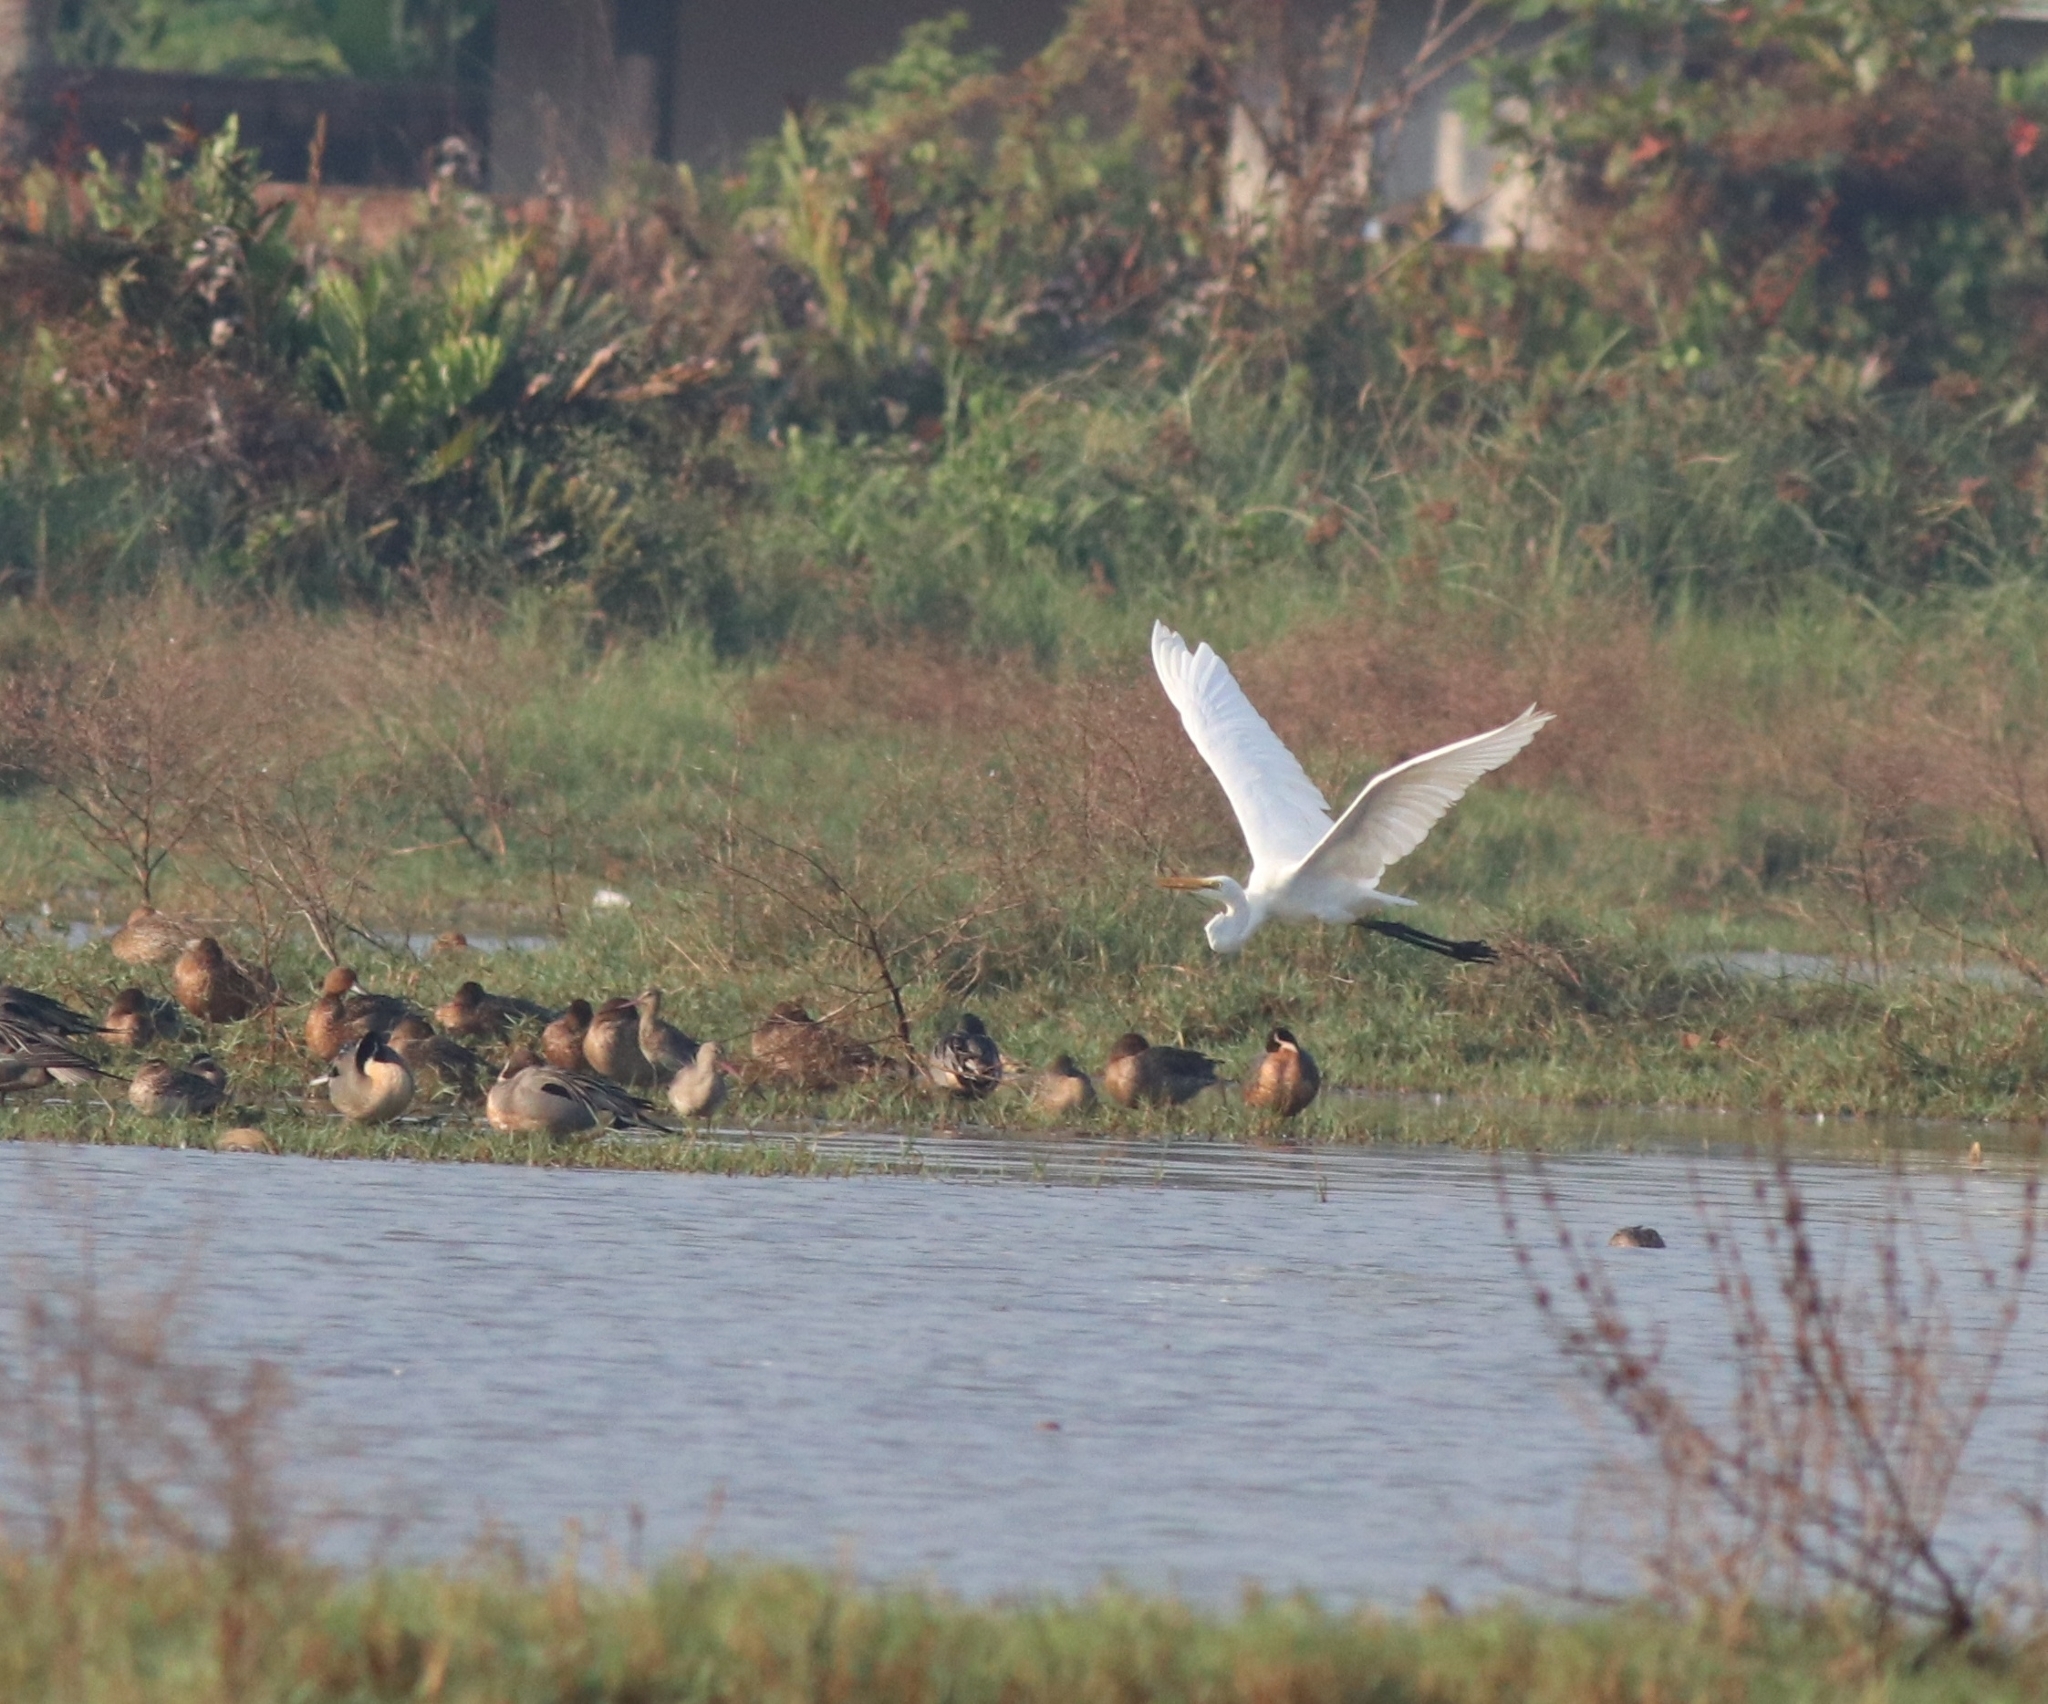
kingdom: Animalia
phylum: Chordata
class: Aves
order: Pelecaniformes
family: Ardeidae
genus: Ardea
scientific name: Ardea alba
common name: Great egret
